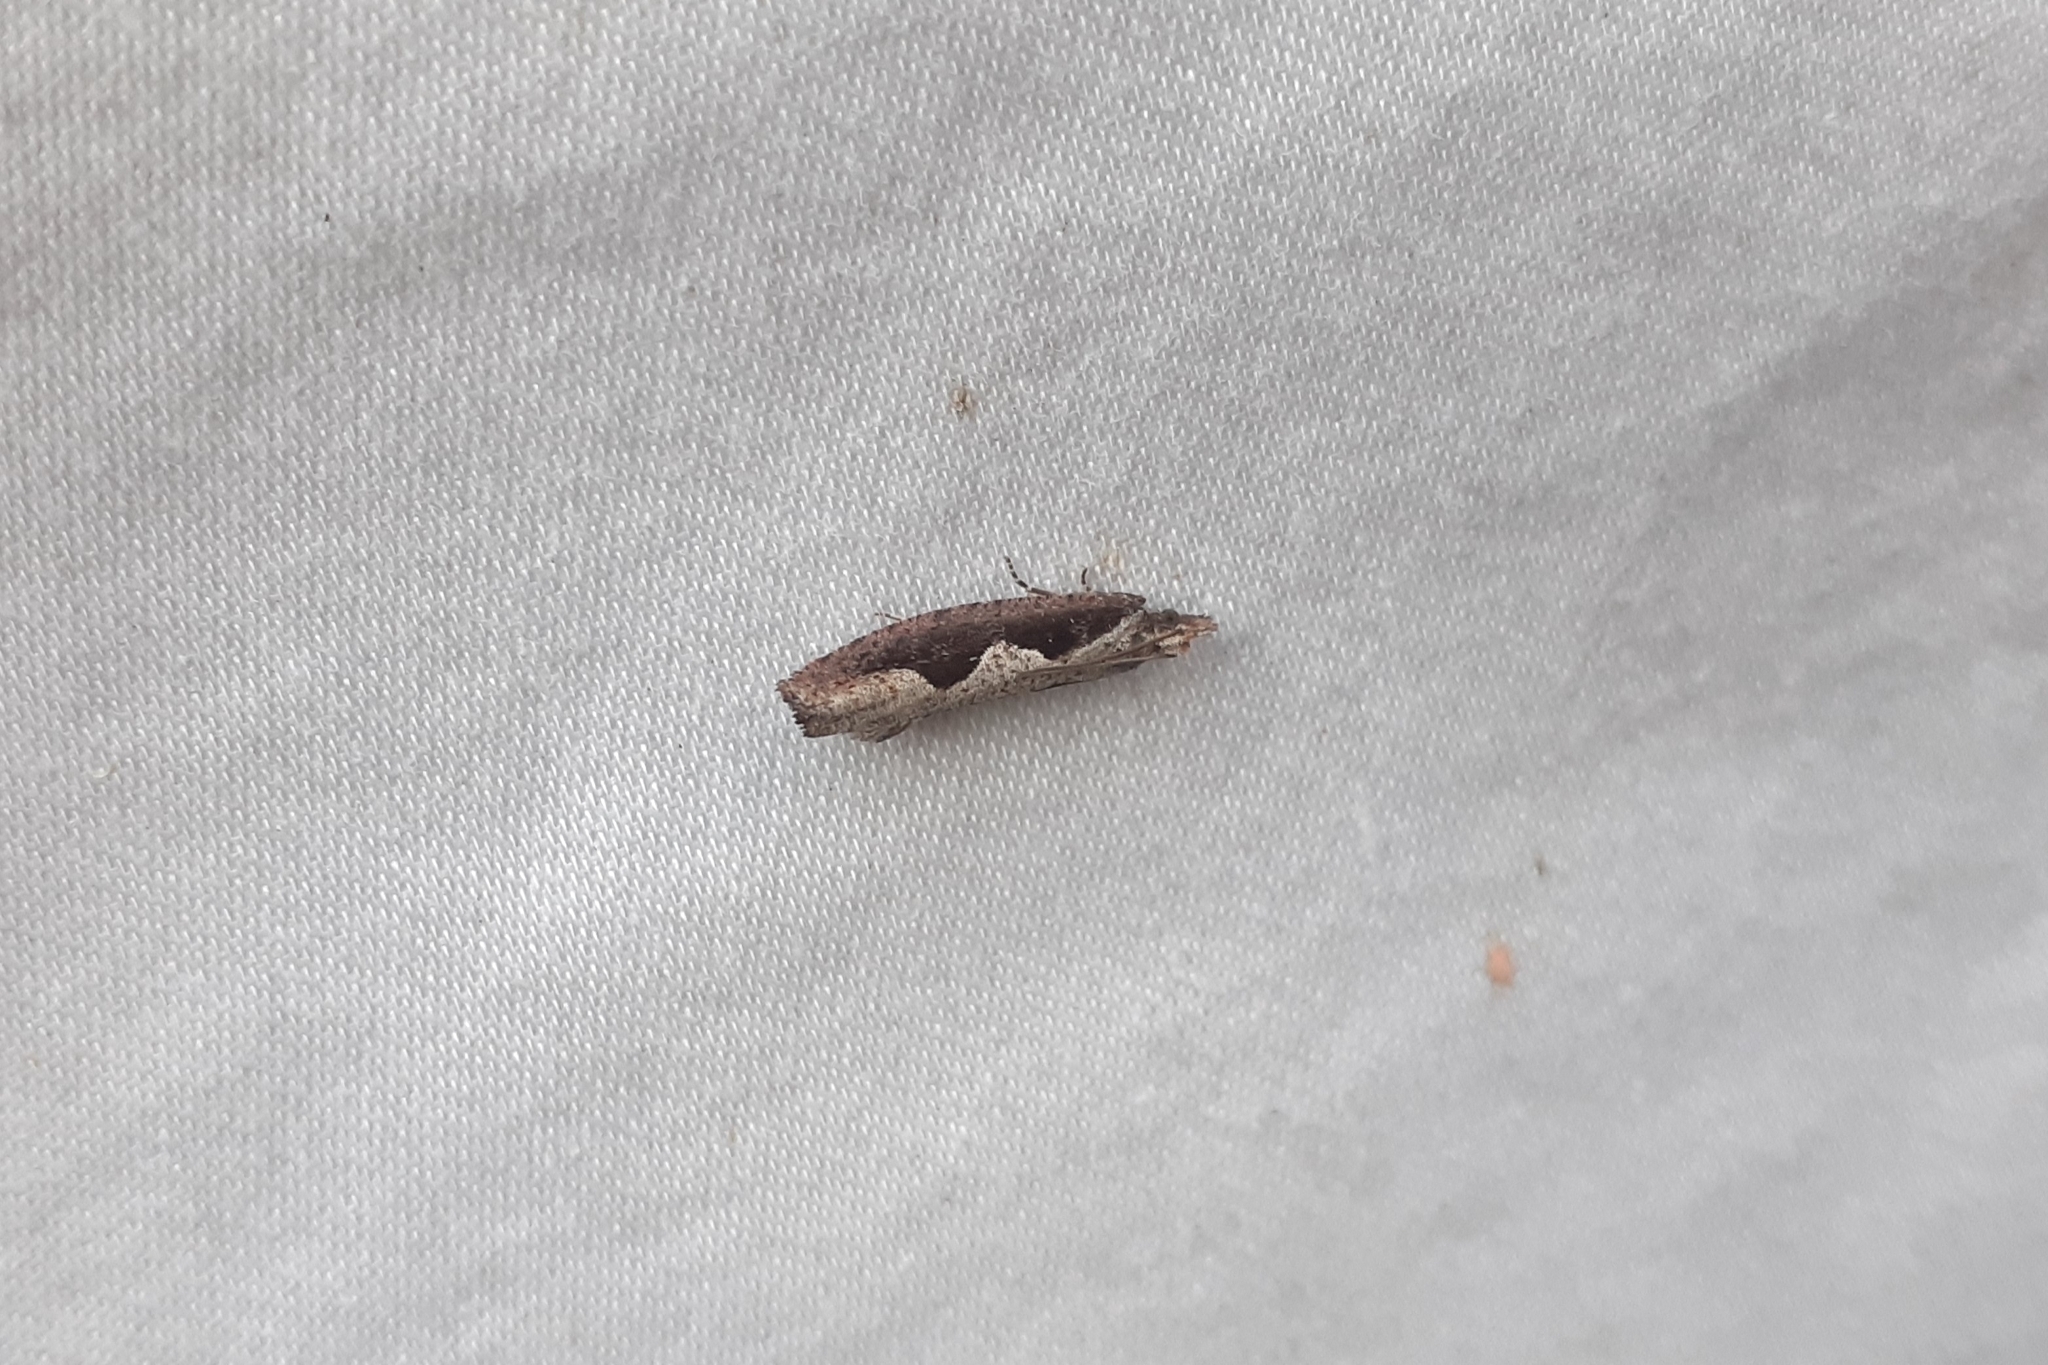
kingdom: Animalia
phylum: Arthropoda
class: Insecta
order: Lepidoptera
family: Tortricidae
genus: Epinotia
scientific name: Epinotia lindana
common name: Diamondback epinotia moth
